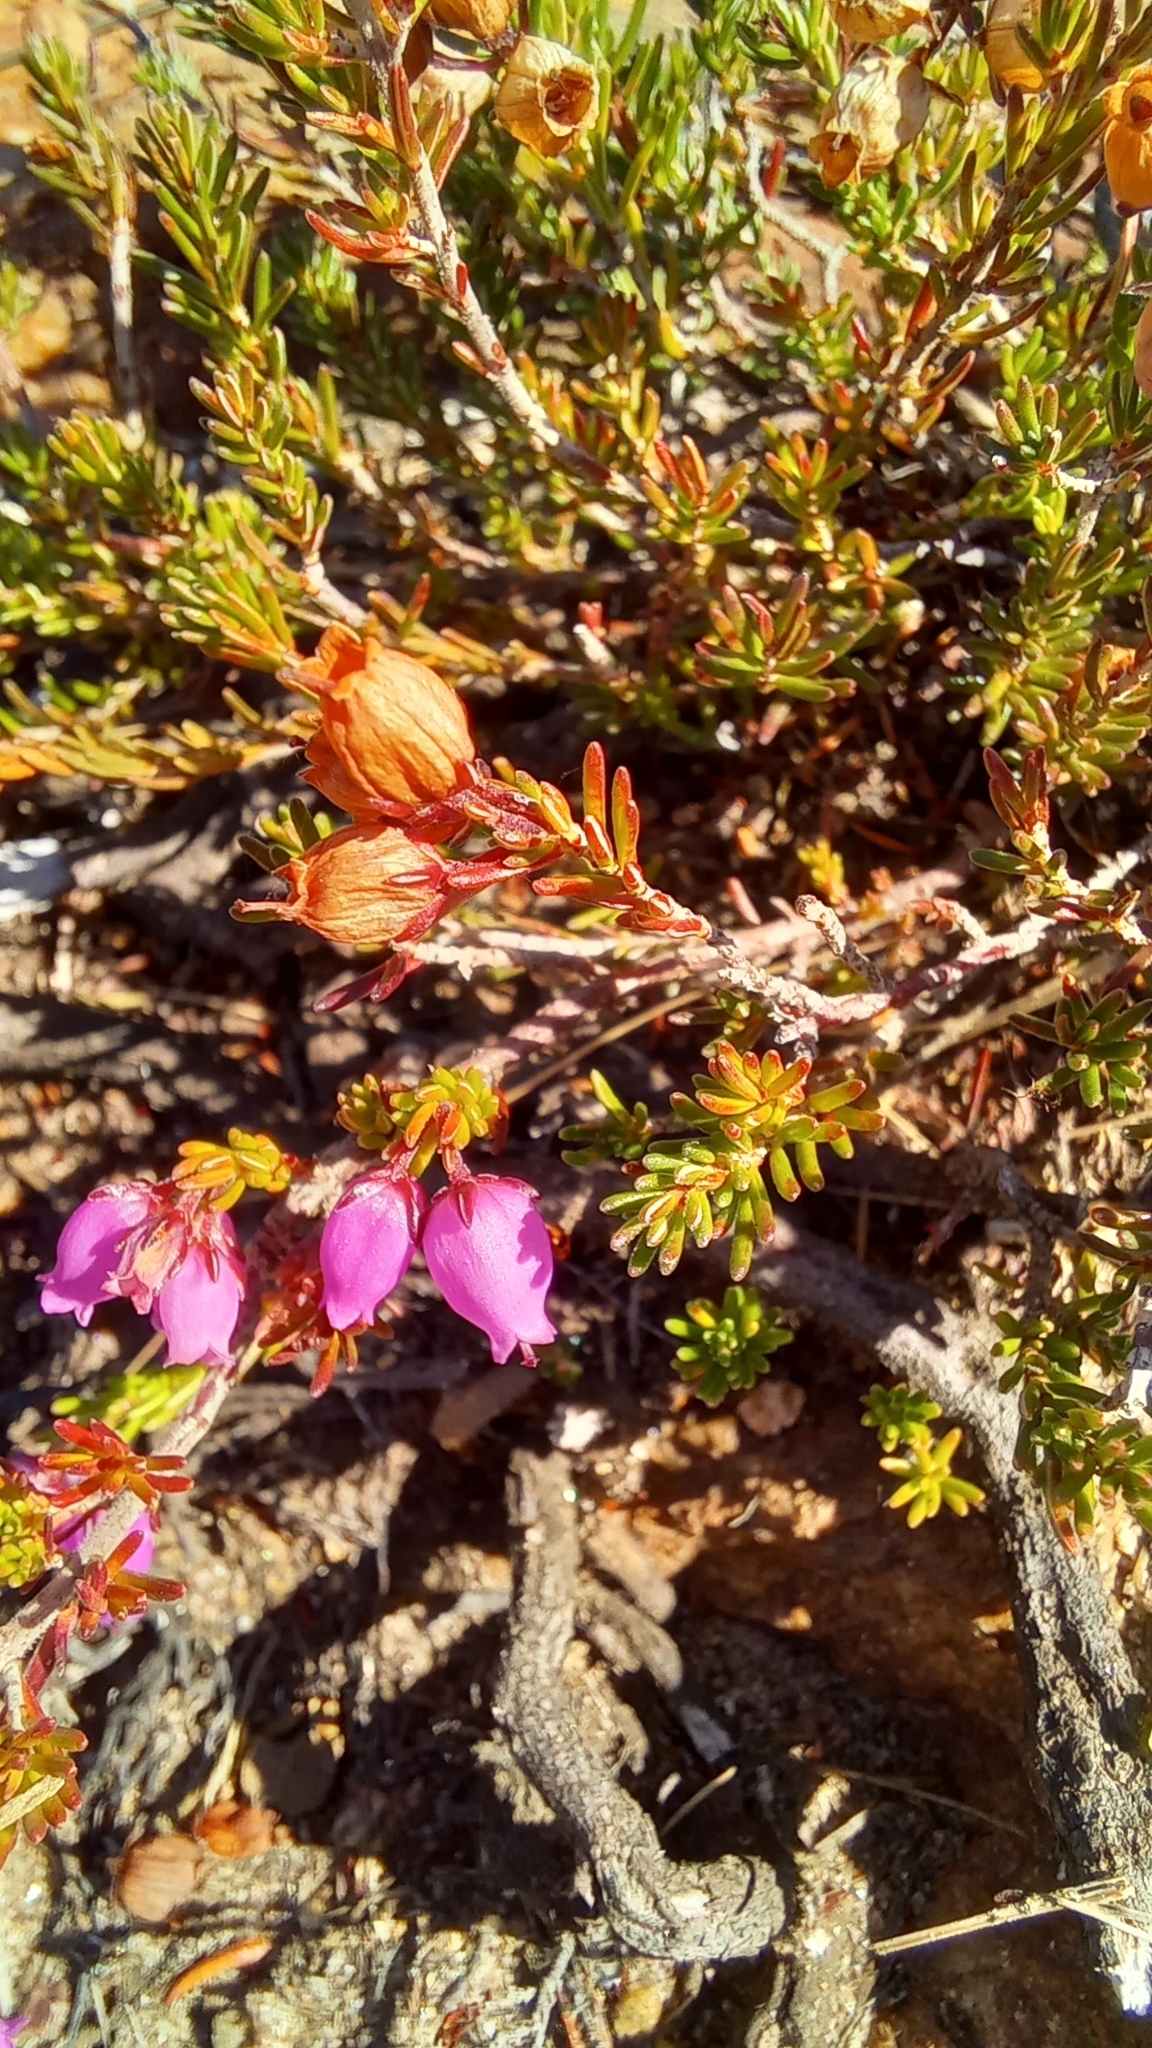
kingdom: Plantae
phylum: Tracheophyta
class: Magnoliopsida
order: Ericales
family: Ericaceae
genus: Erica
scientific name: Erica cinerea
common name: Bell heather
